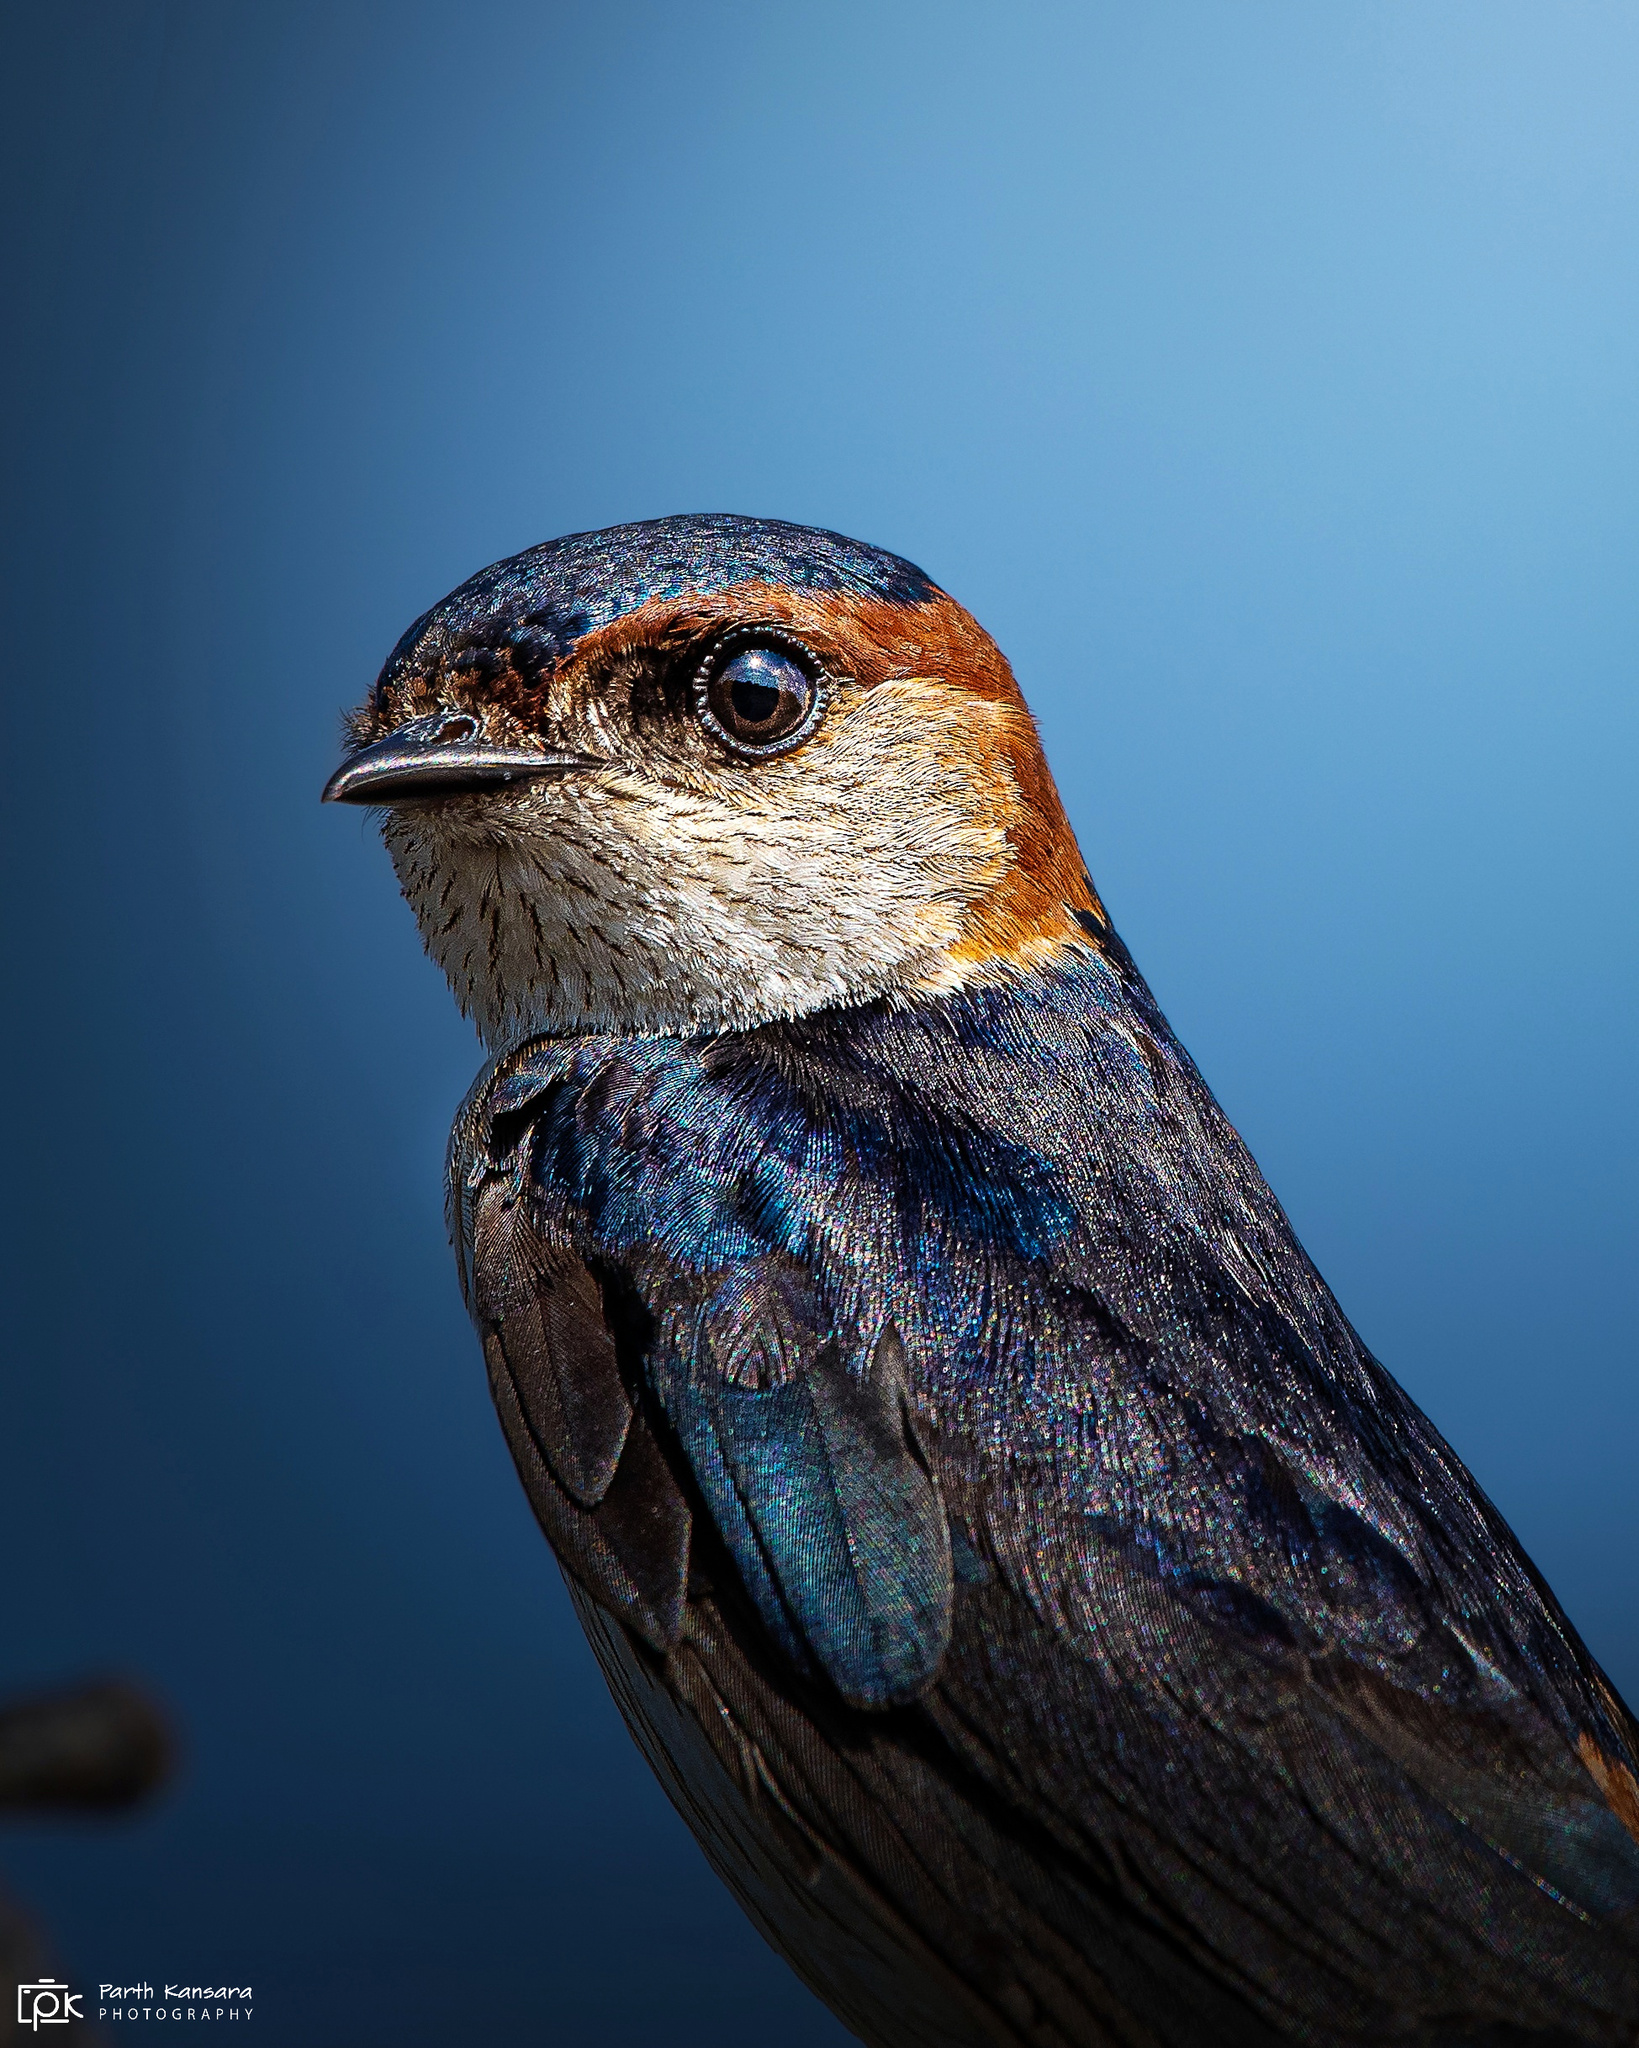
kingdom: Animalia
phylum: Chordata
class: Aves
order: Passeriformes
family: Hirundinidae
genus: Cecropis
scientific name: Cecropis daurica
